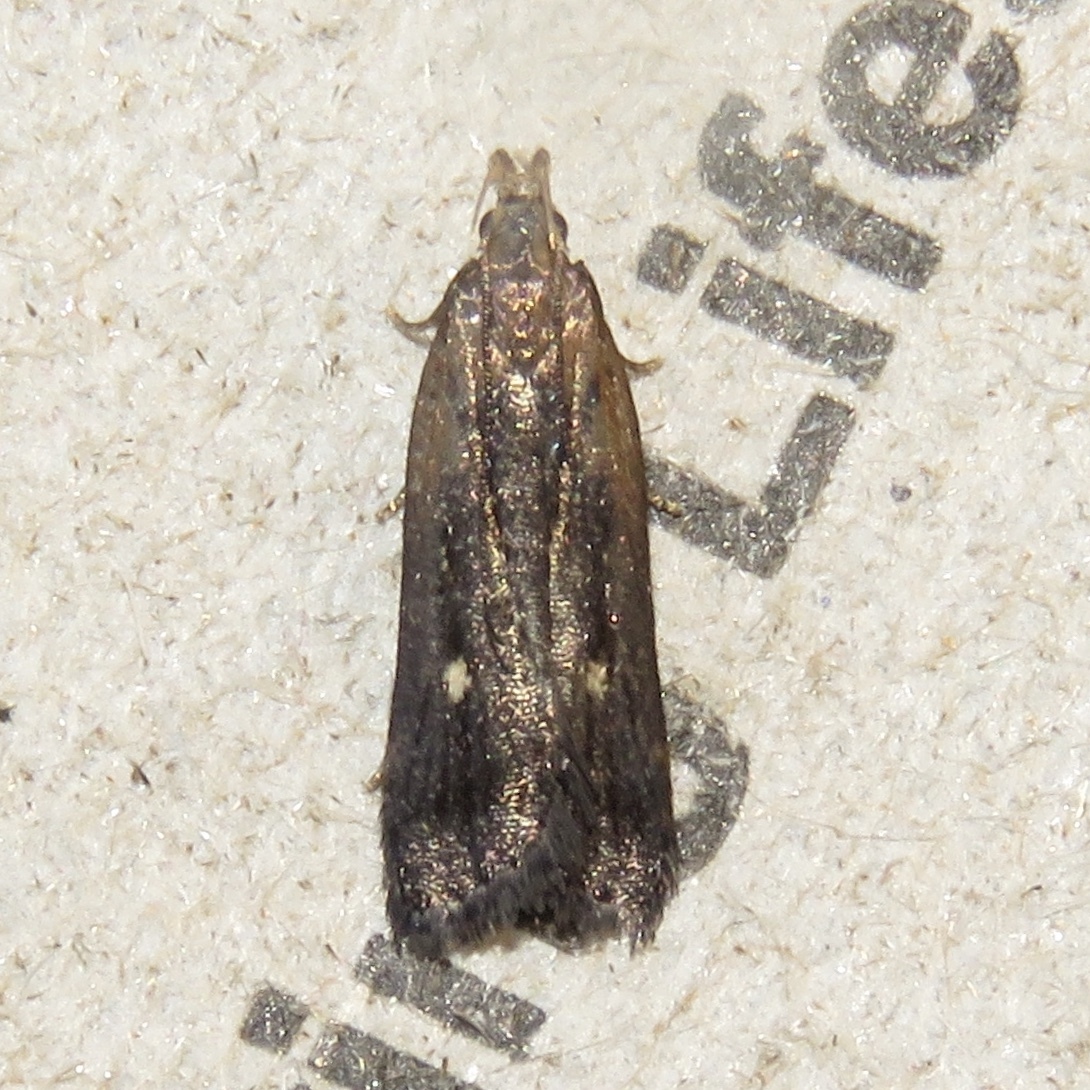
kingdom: Animalia
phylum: Arthropoda
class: Insecta
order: Lepidoptera
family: Gelechiidae
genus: Dichomeris
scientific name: Dichomeris copa
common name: Copa dichomeris moth
